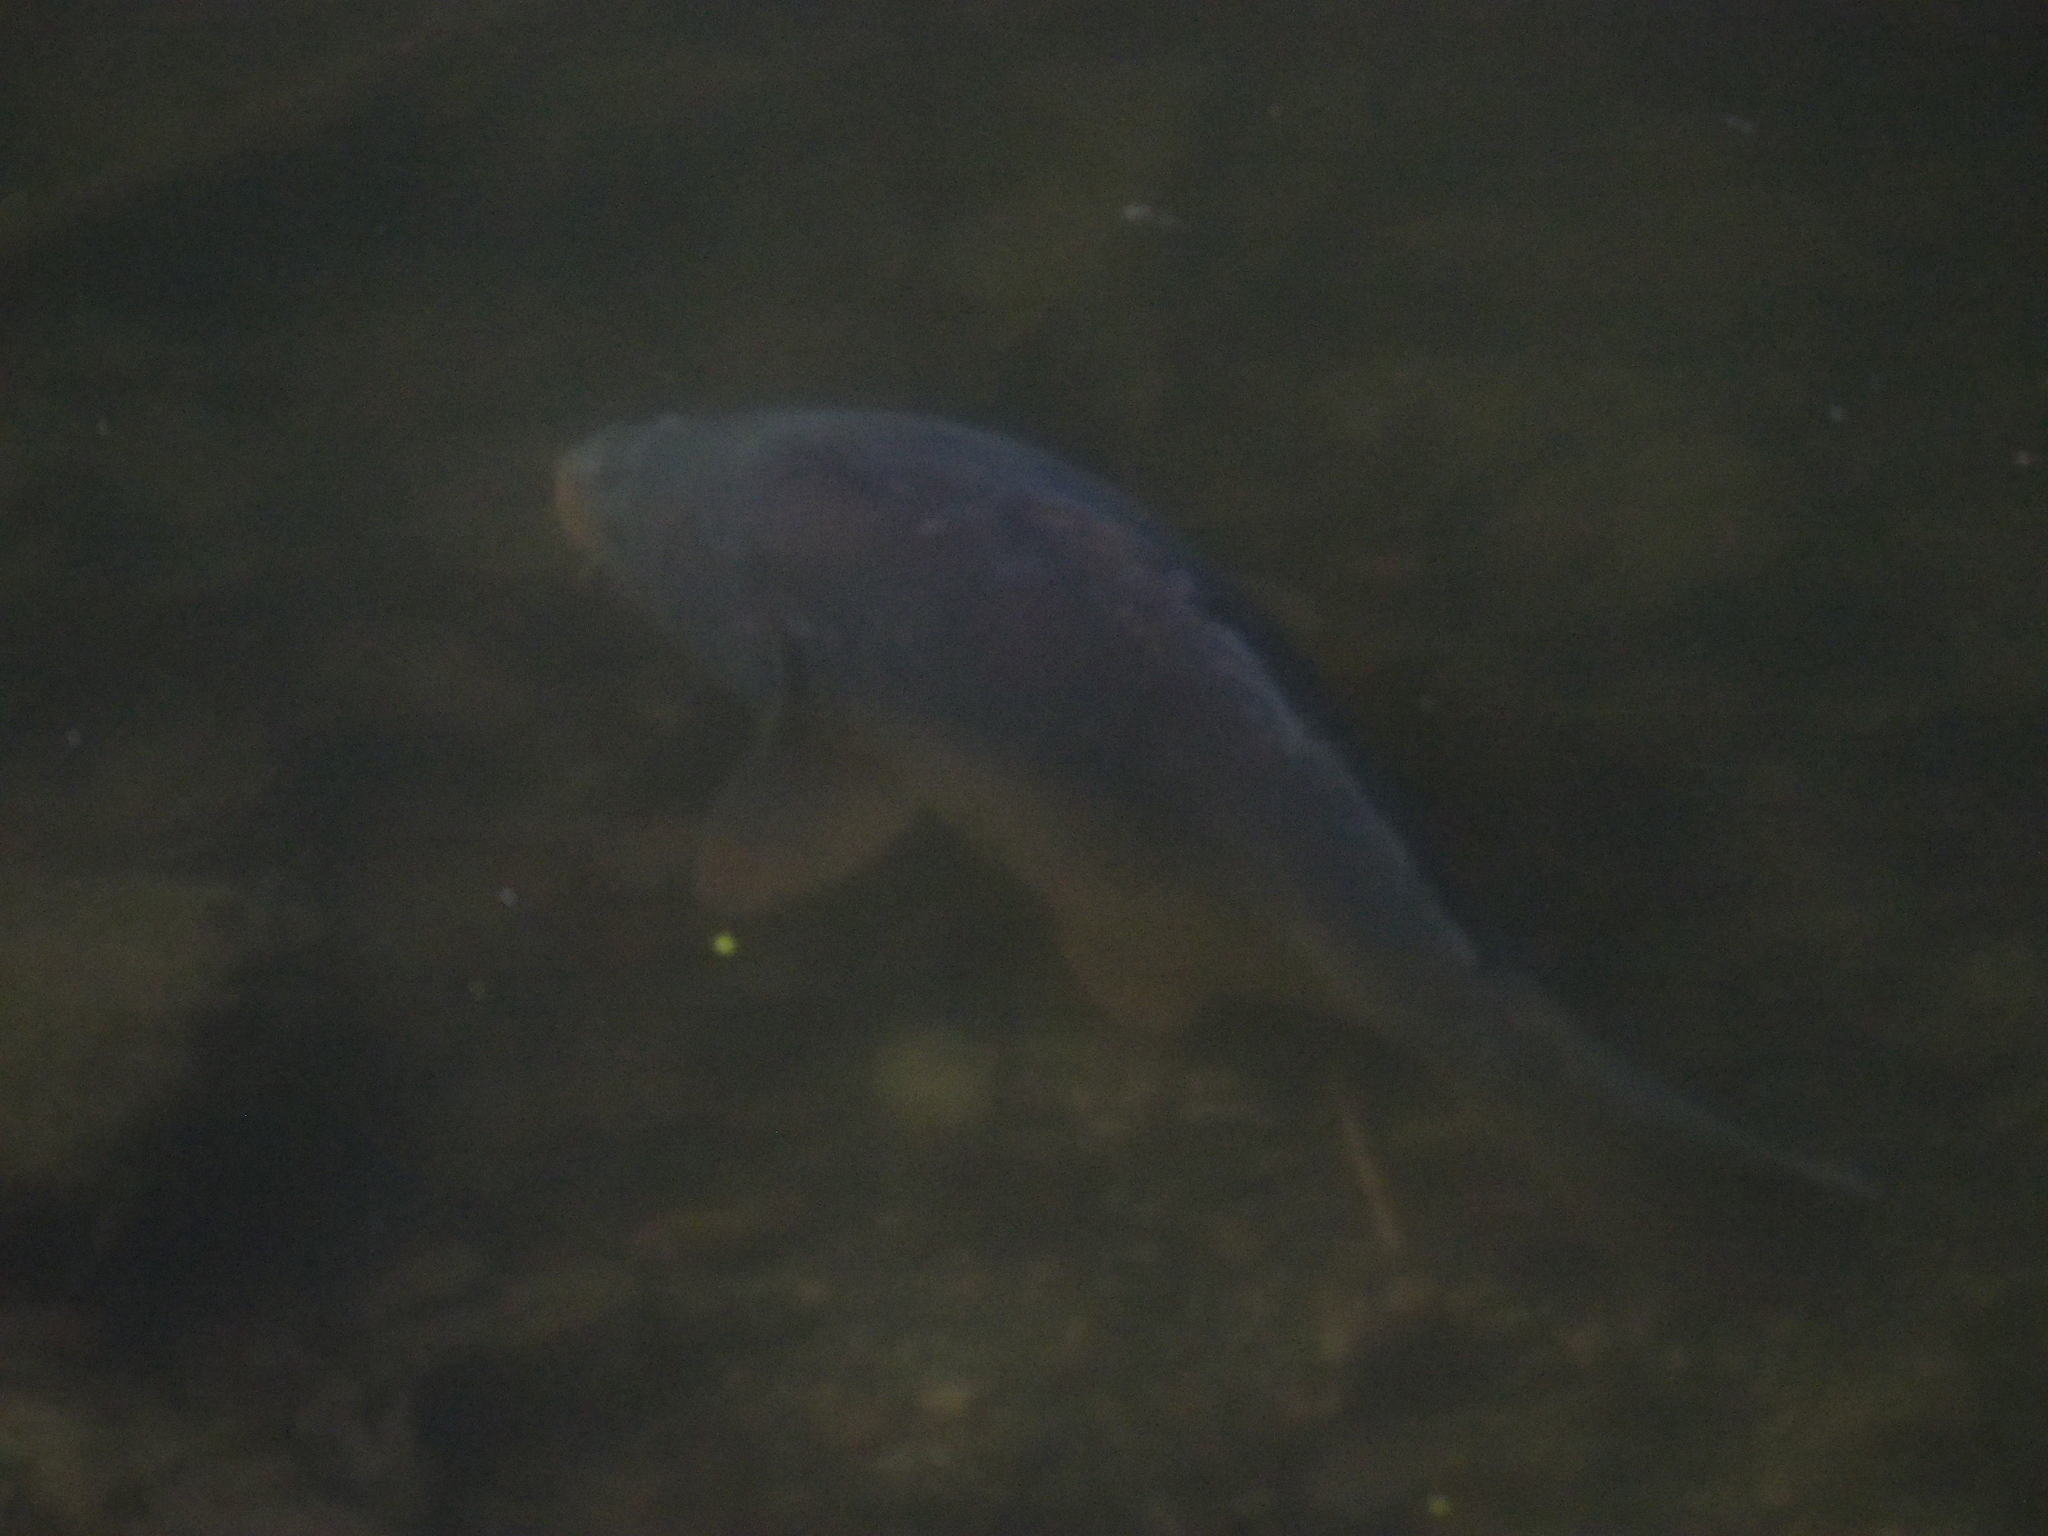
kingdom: Animalia
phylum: Chordata
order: Cypriniformes
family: Cyprinidae
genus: Cyprinus
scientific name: Cyprinus carpio
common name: Common carp
